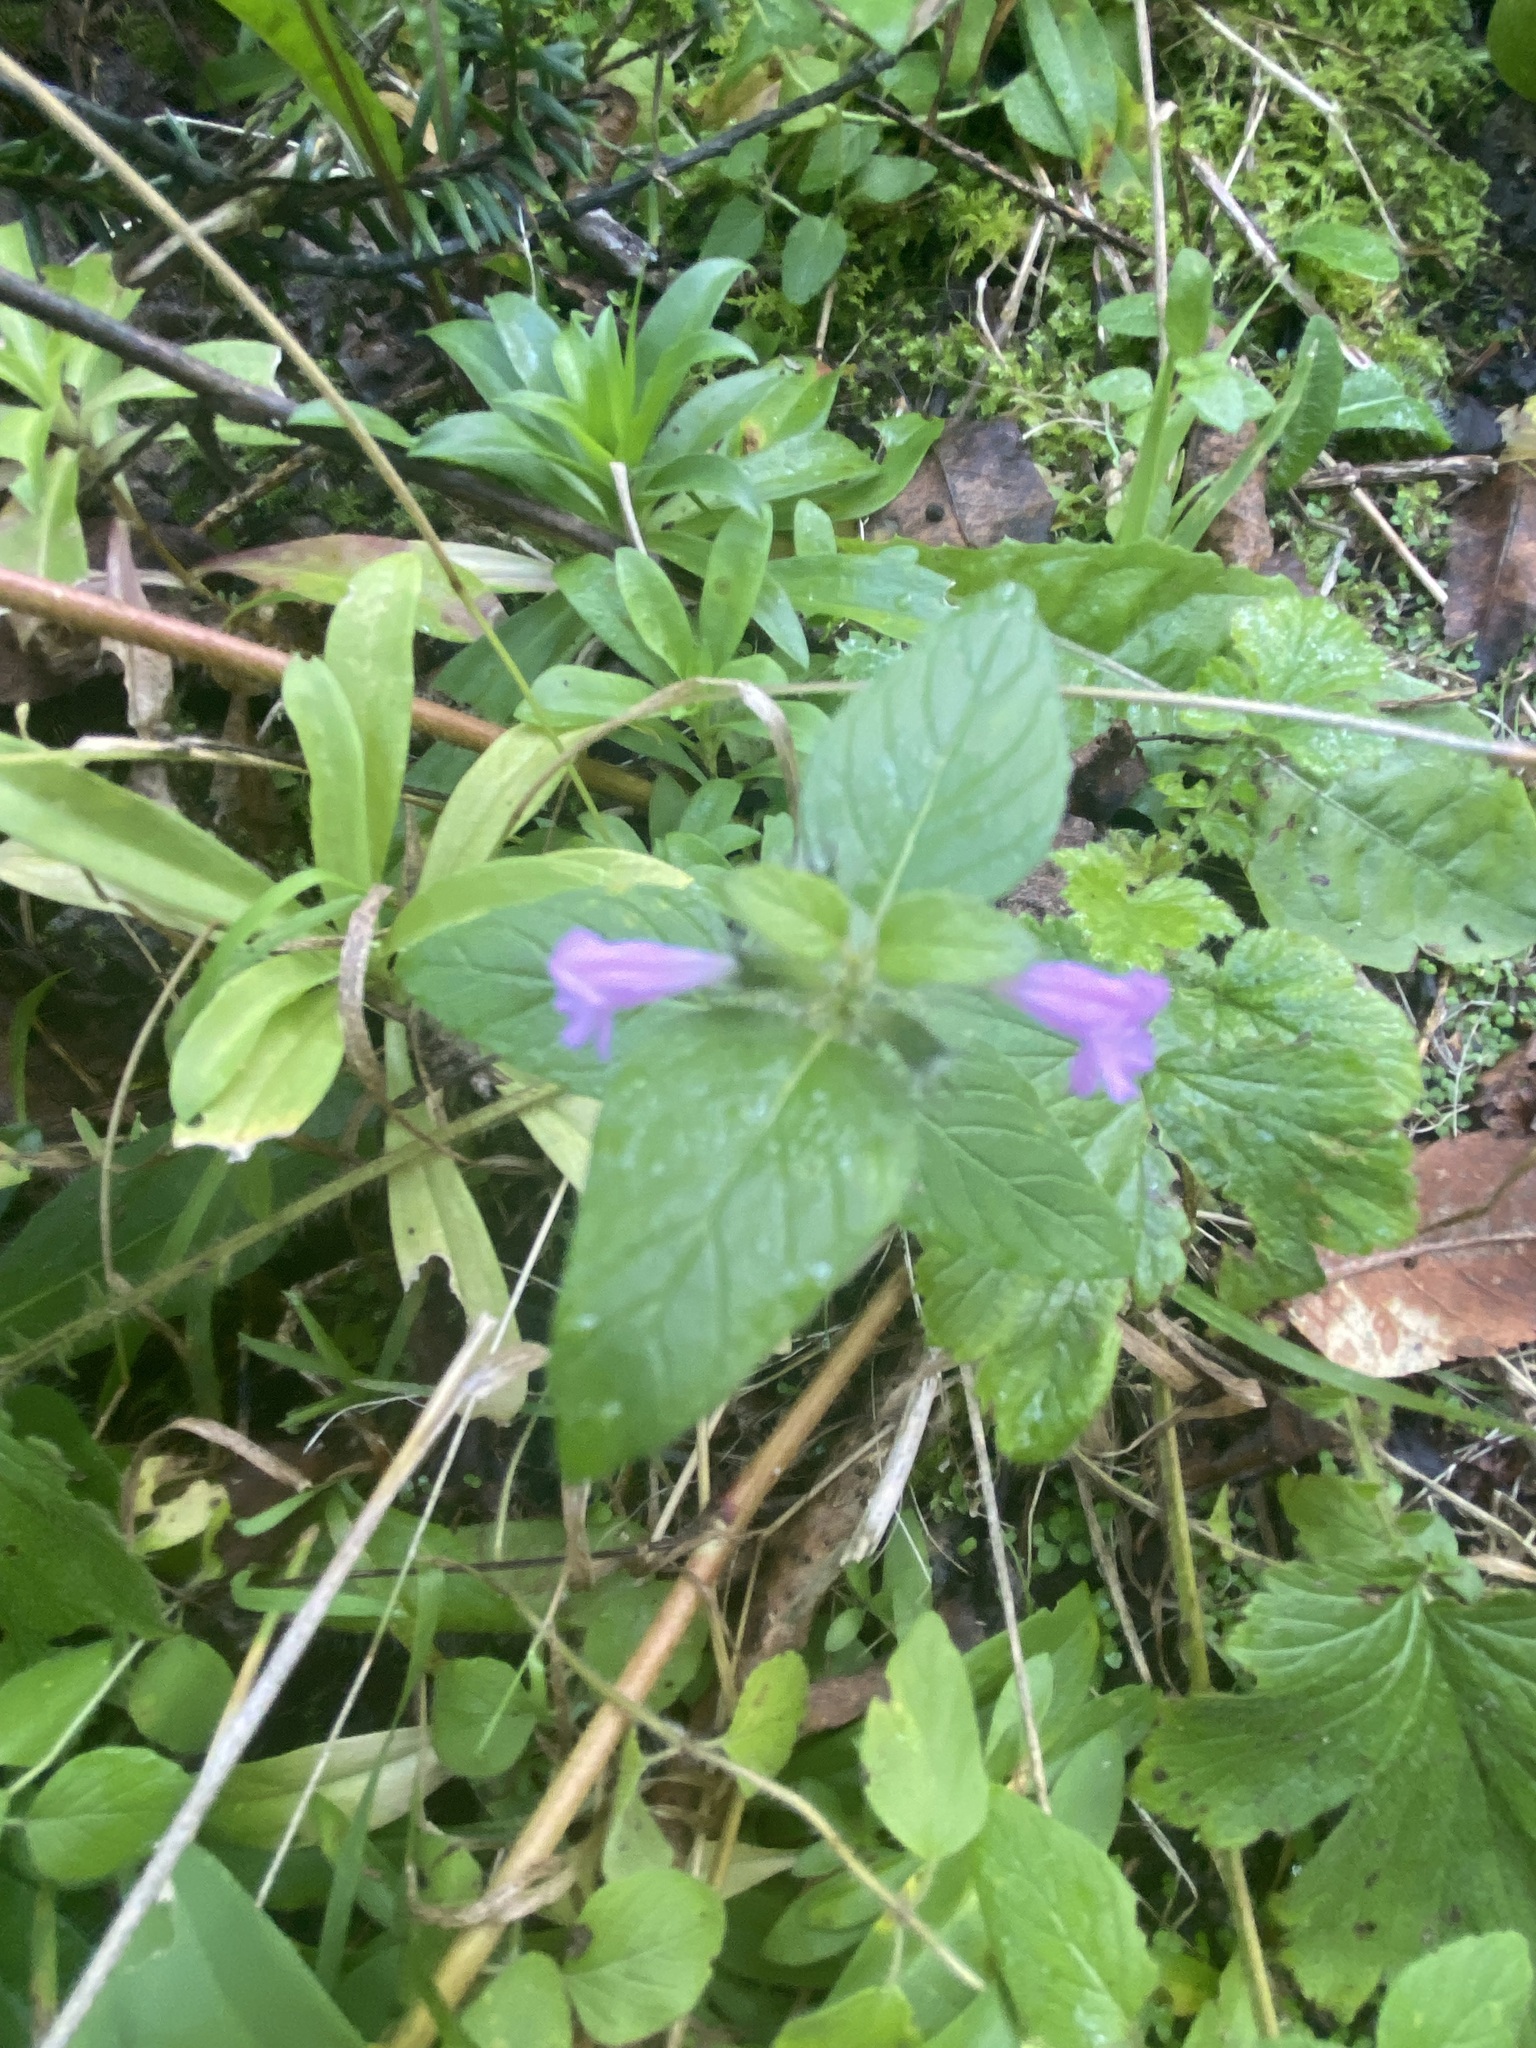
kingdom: Plantae
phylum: Tracheophyta
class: Magnoliopsida
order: Lamiales
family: Lamiaceae
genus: Clinopodium
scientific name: Clinopodium vulgare
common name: Wild basil
